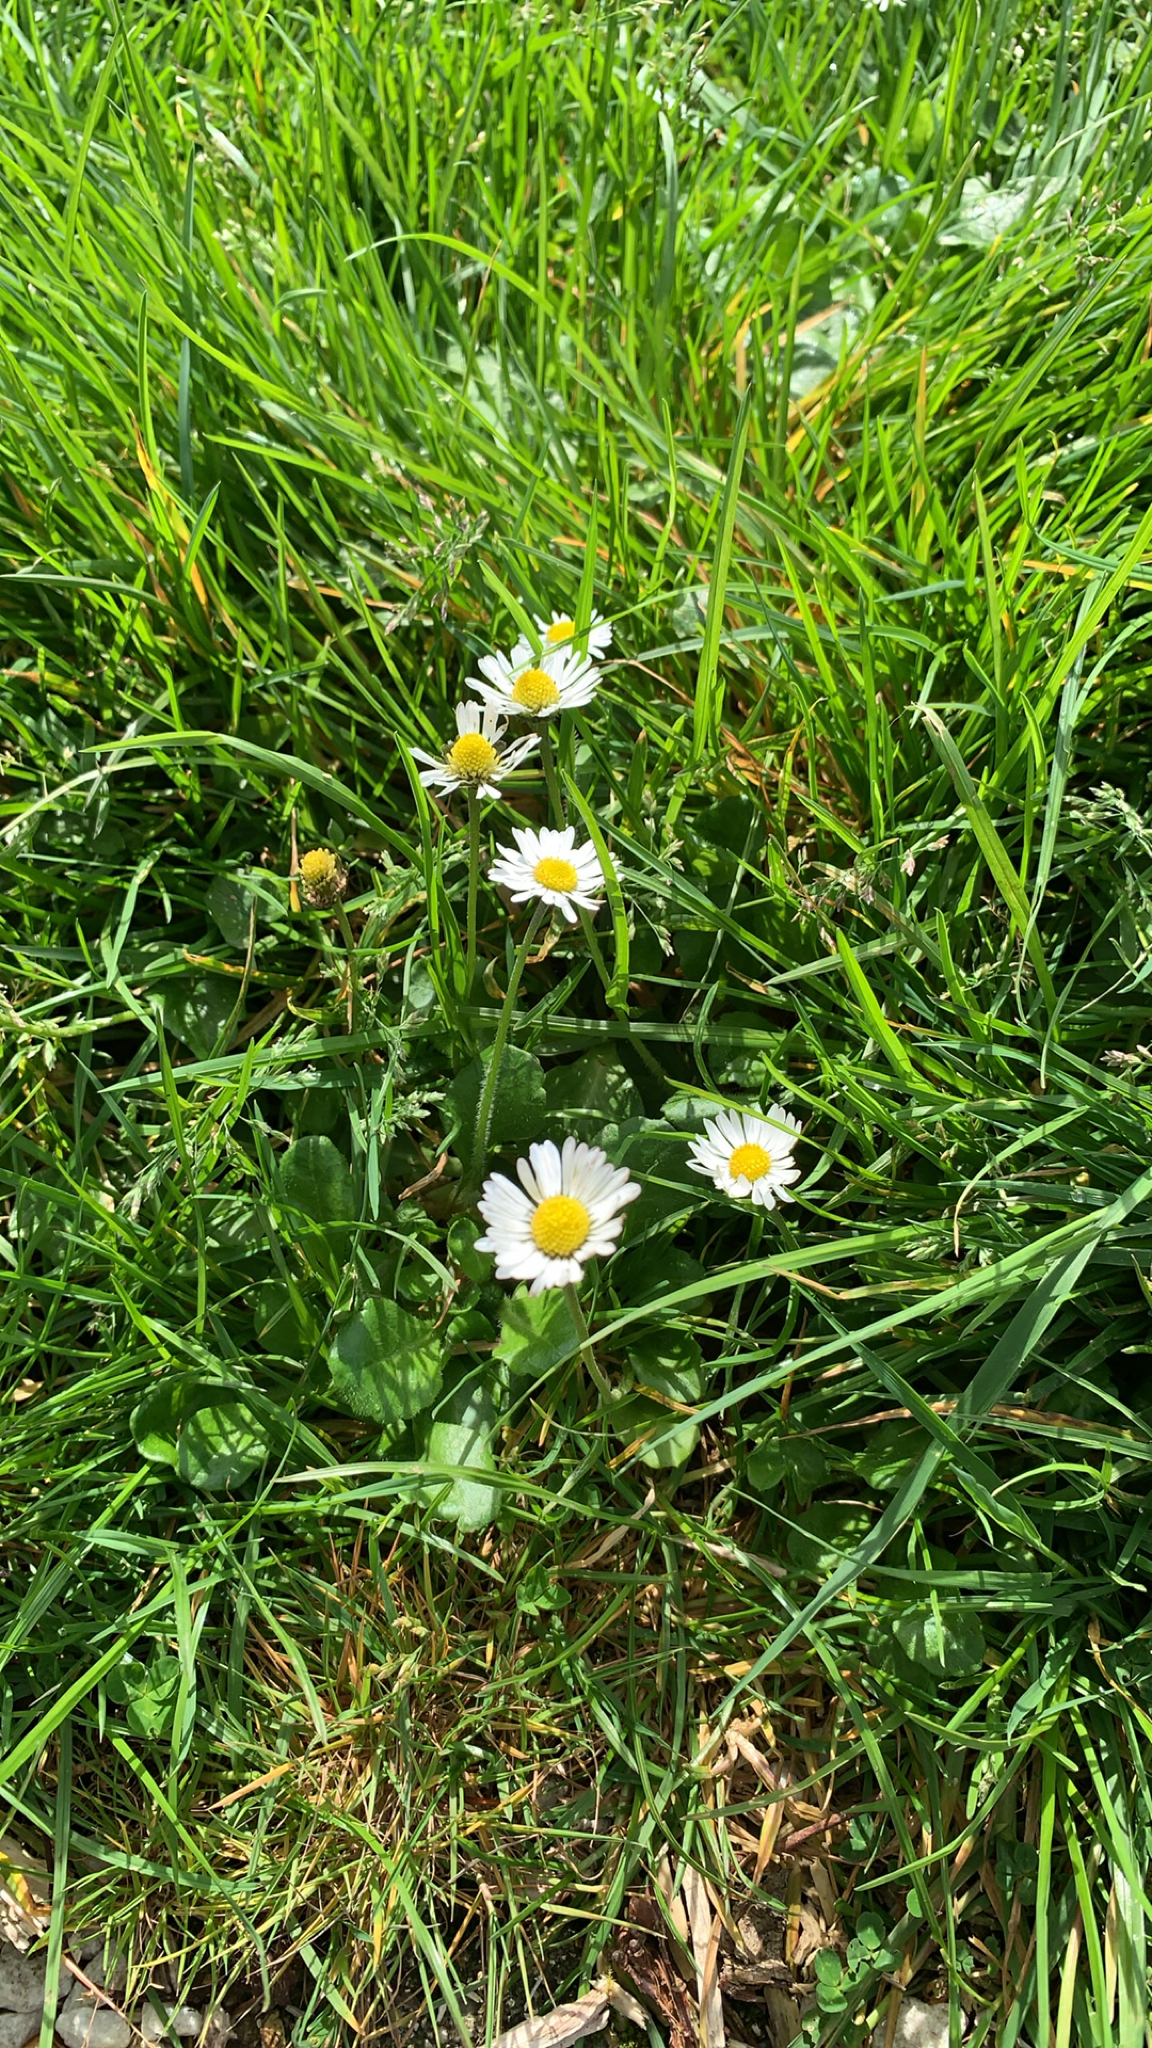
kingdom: Plantae
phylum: Tracheophyta
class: Magnoliopsida
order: Asterales
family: Asteraceae
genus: Bellis
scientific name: Bellis perennis
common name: Lawndaisy
